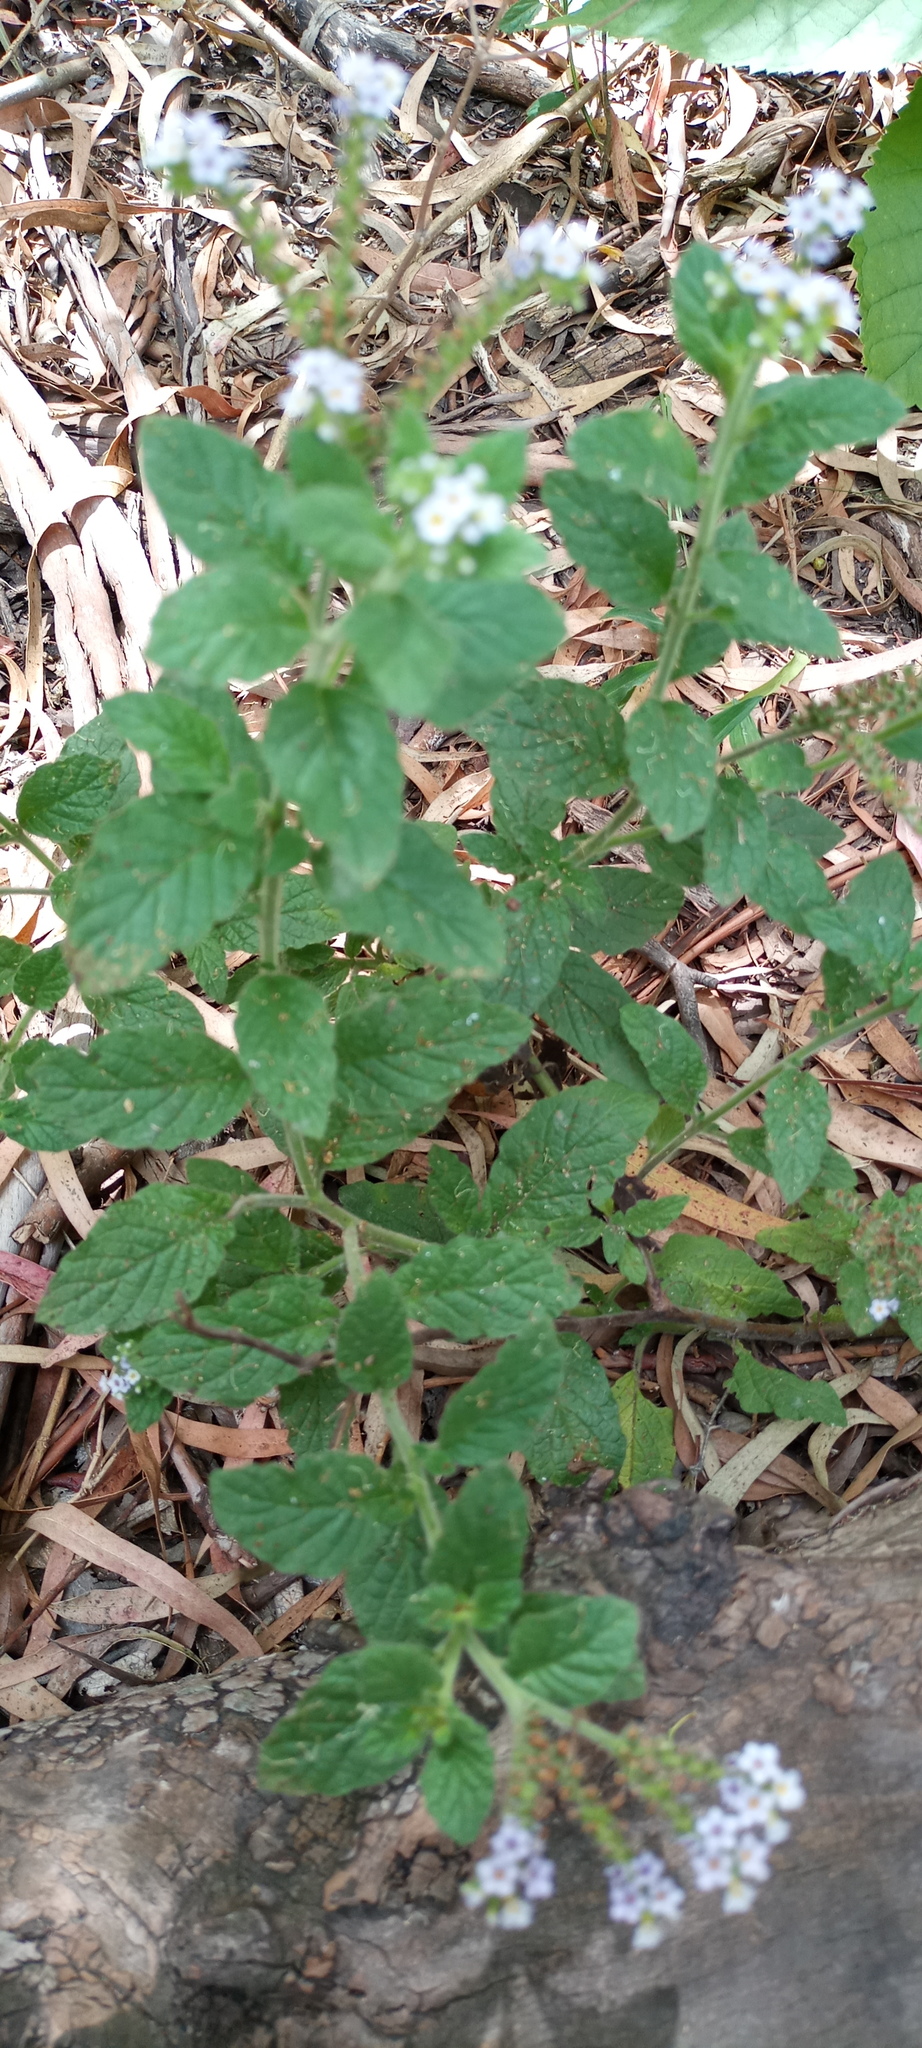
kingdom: Plantae
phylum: Tracheophyta
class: Magnoliopsida
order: Boraginales
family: Heliotropiaceae
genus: Heliotropium
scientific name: Heliotropium nicotianifolium
